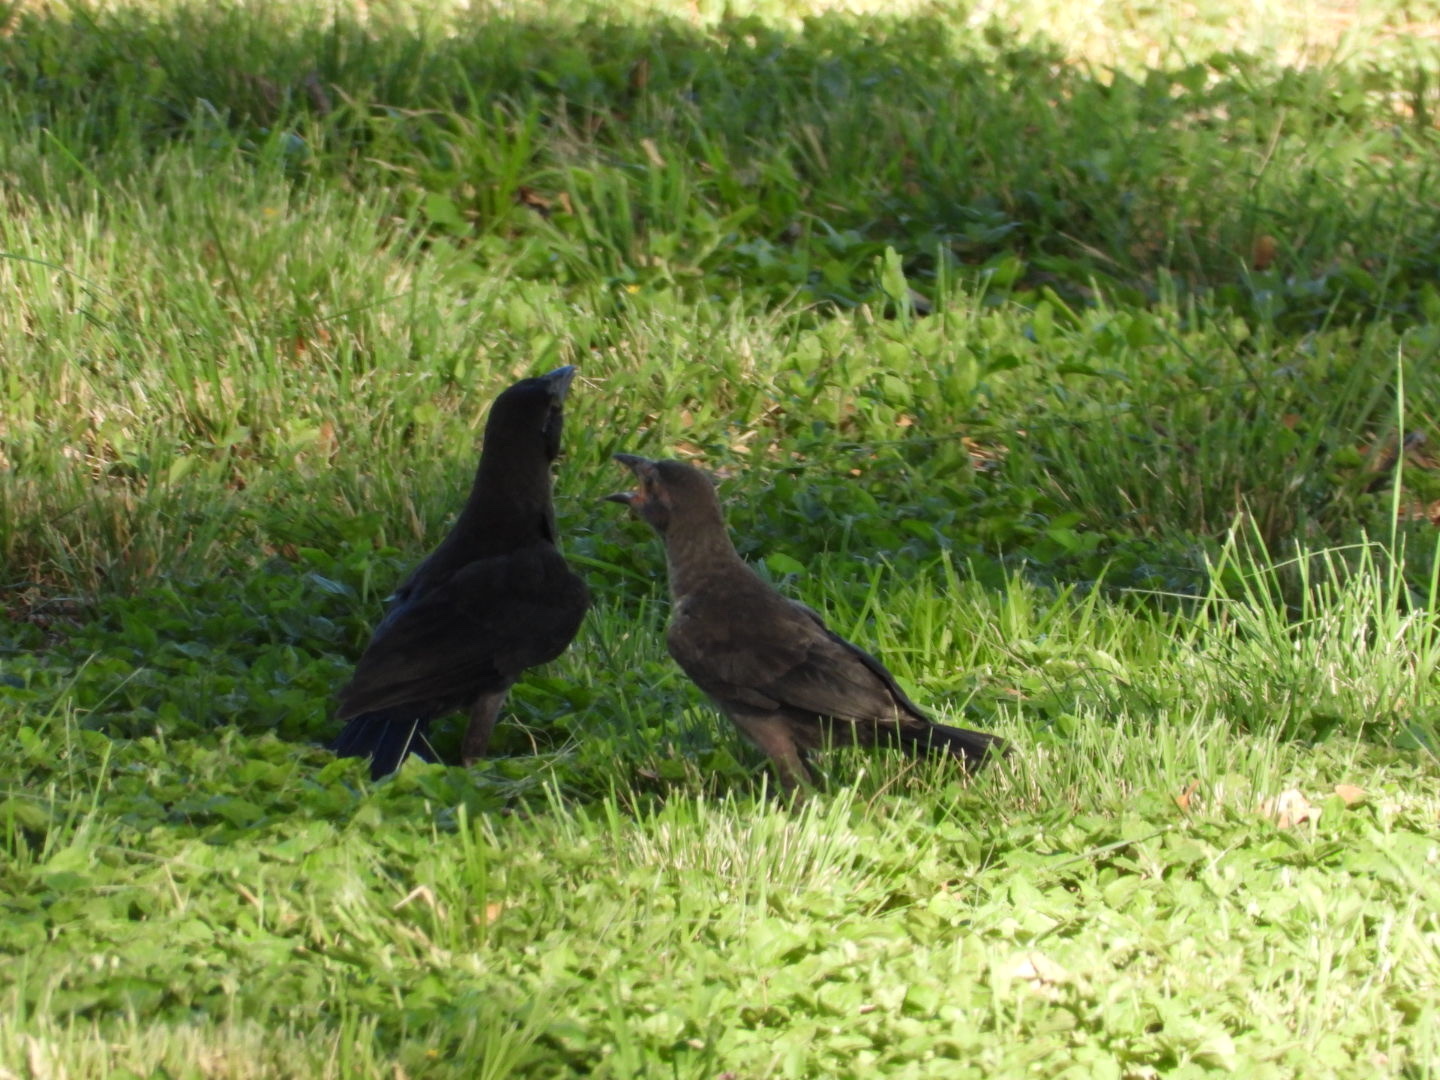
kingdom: Animalia
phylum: Chordata
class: Aves
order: Passeriformes
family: Icteridae
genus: Quiscalus
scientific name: Quiscalus mexicanus
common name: Great-tailed grackle
